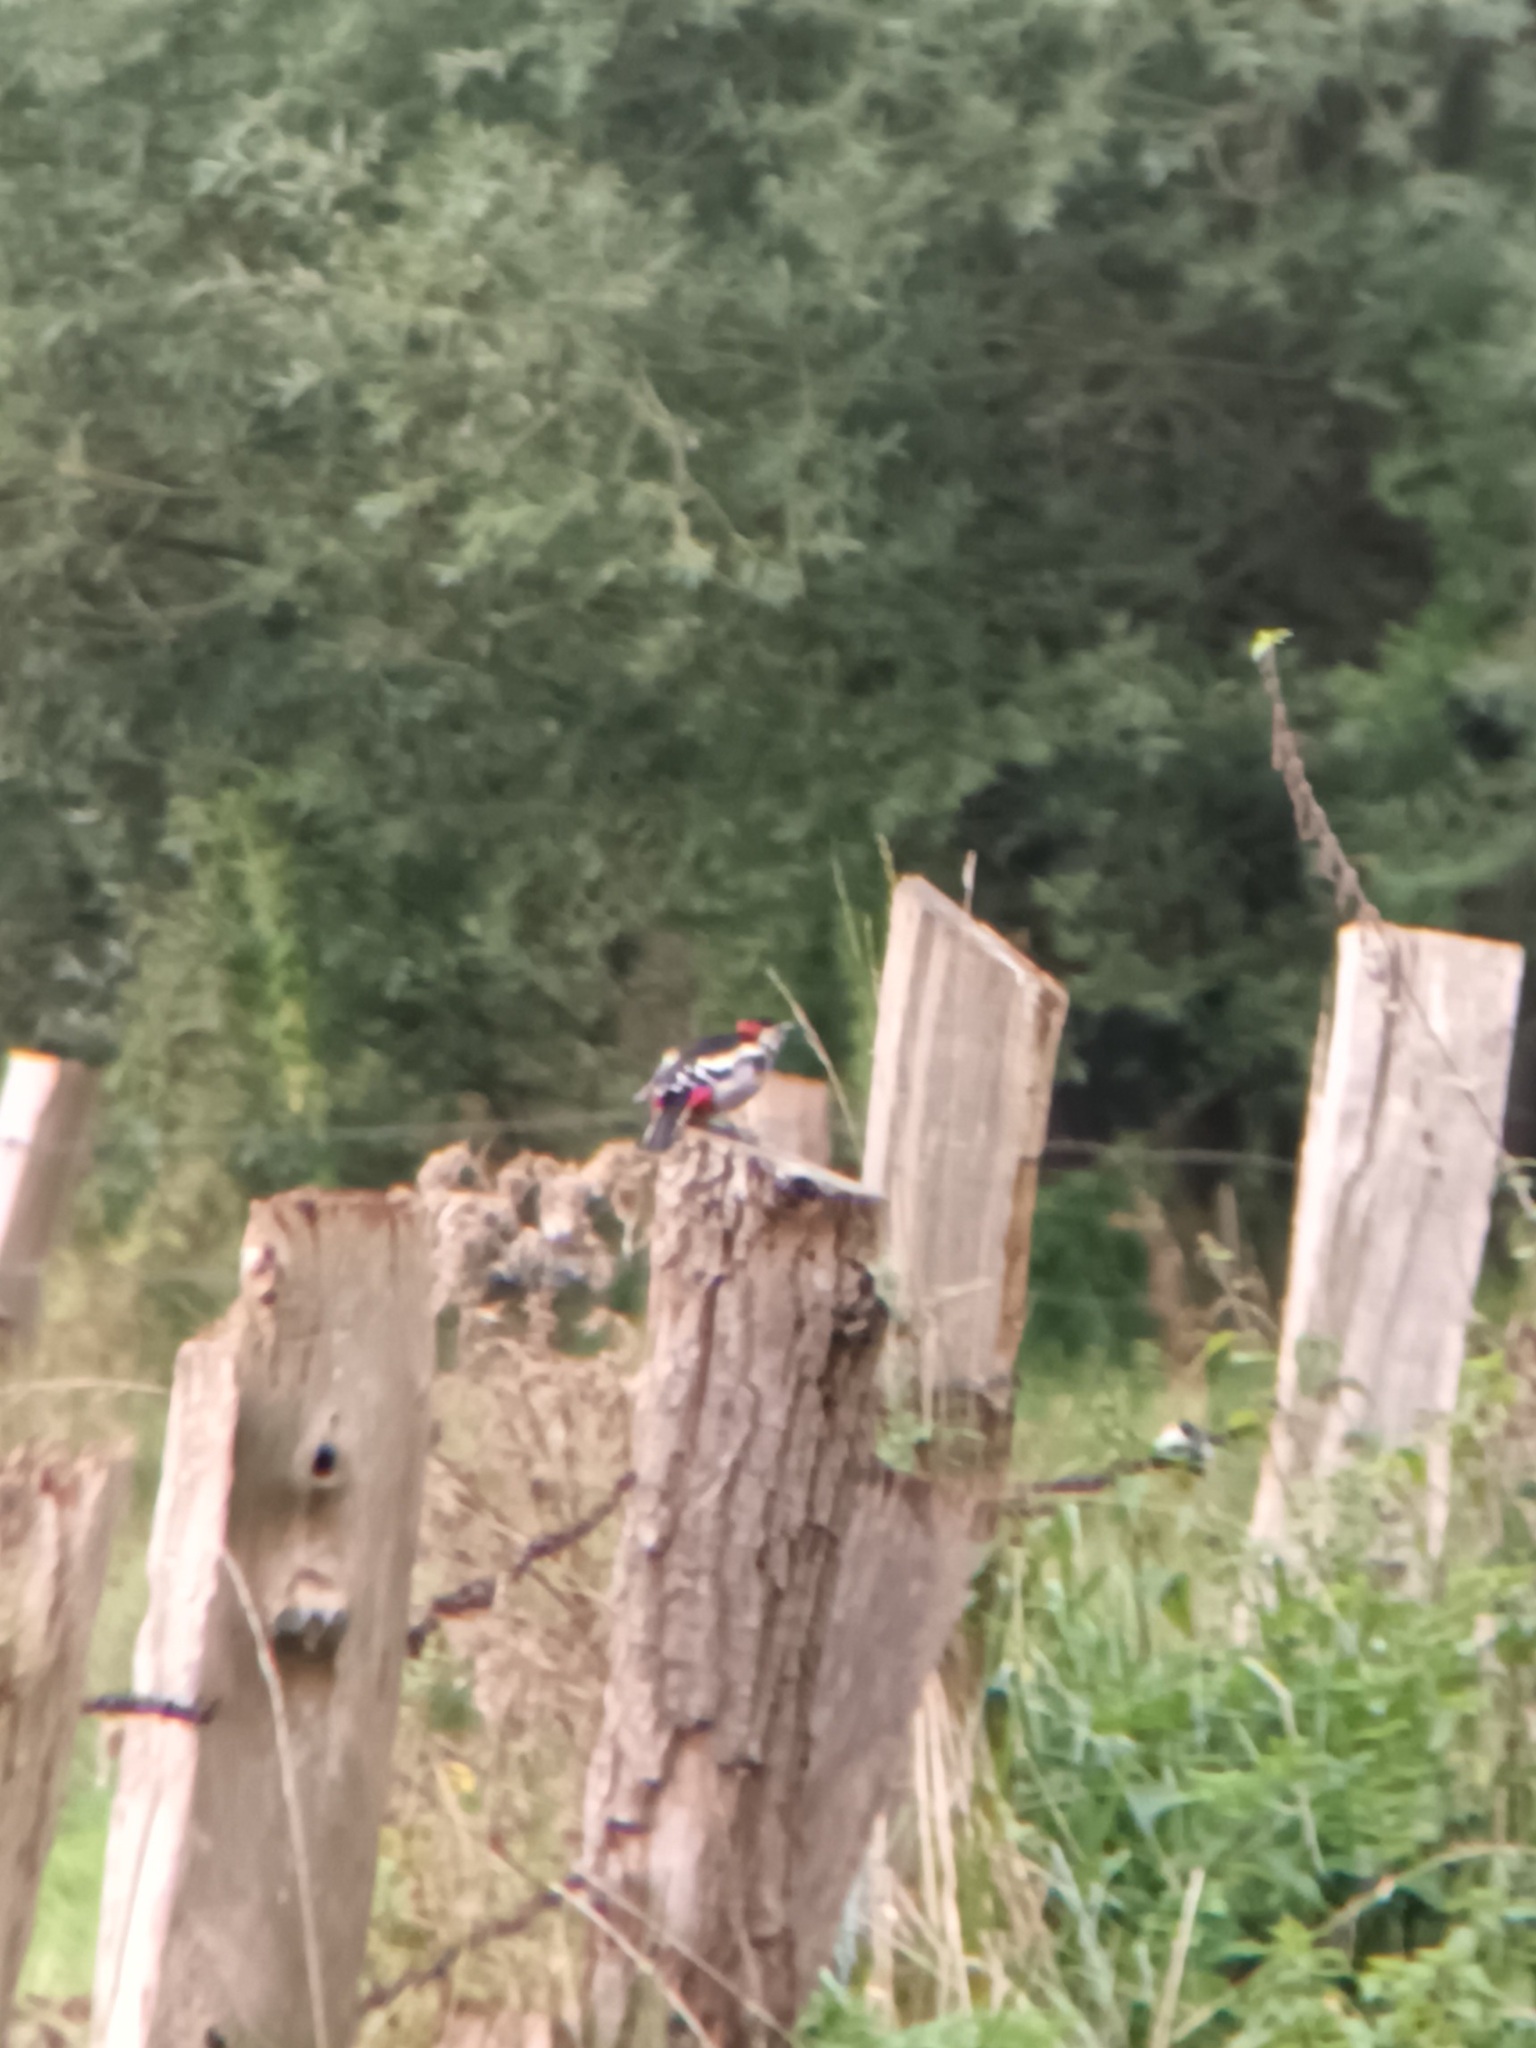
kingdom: Animalia
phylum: Chordata
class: Aves
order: Piciformes
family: Picidae
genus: Dendrocopos
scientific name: Dendrocopos major
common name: Great spotted woodpecker
